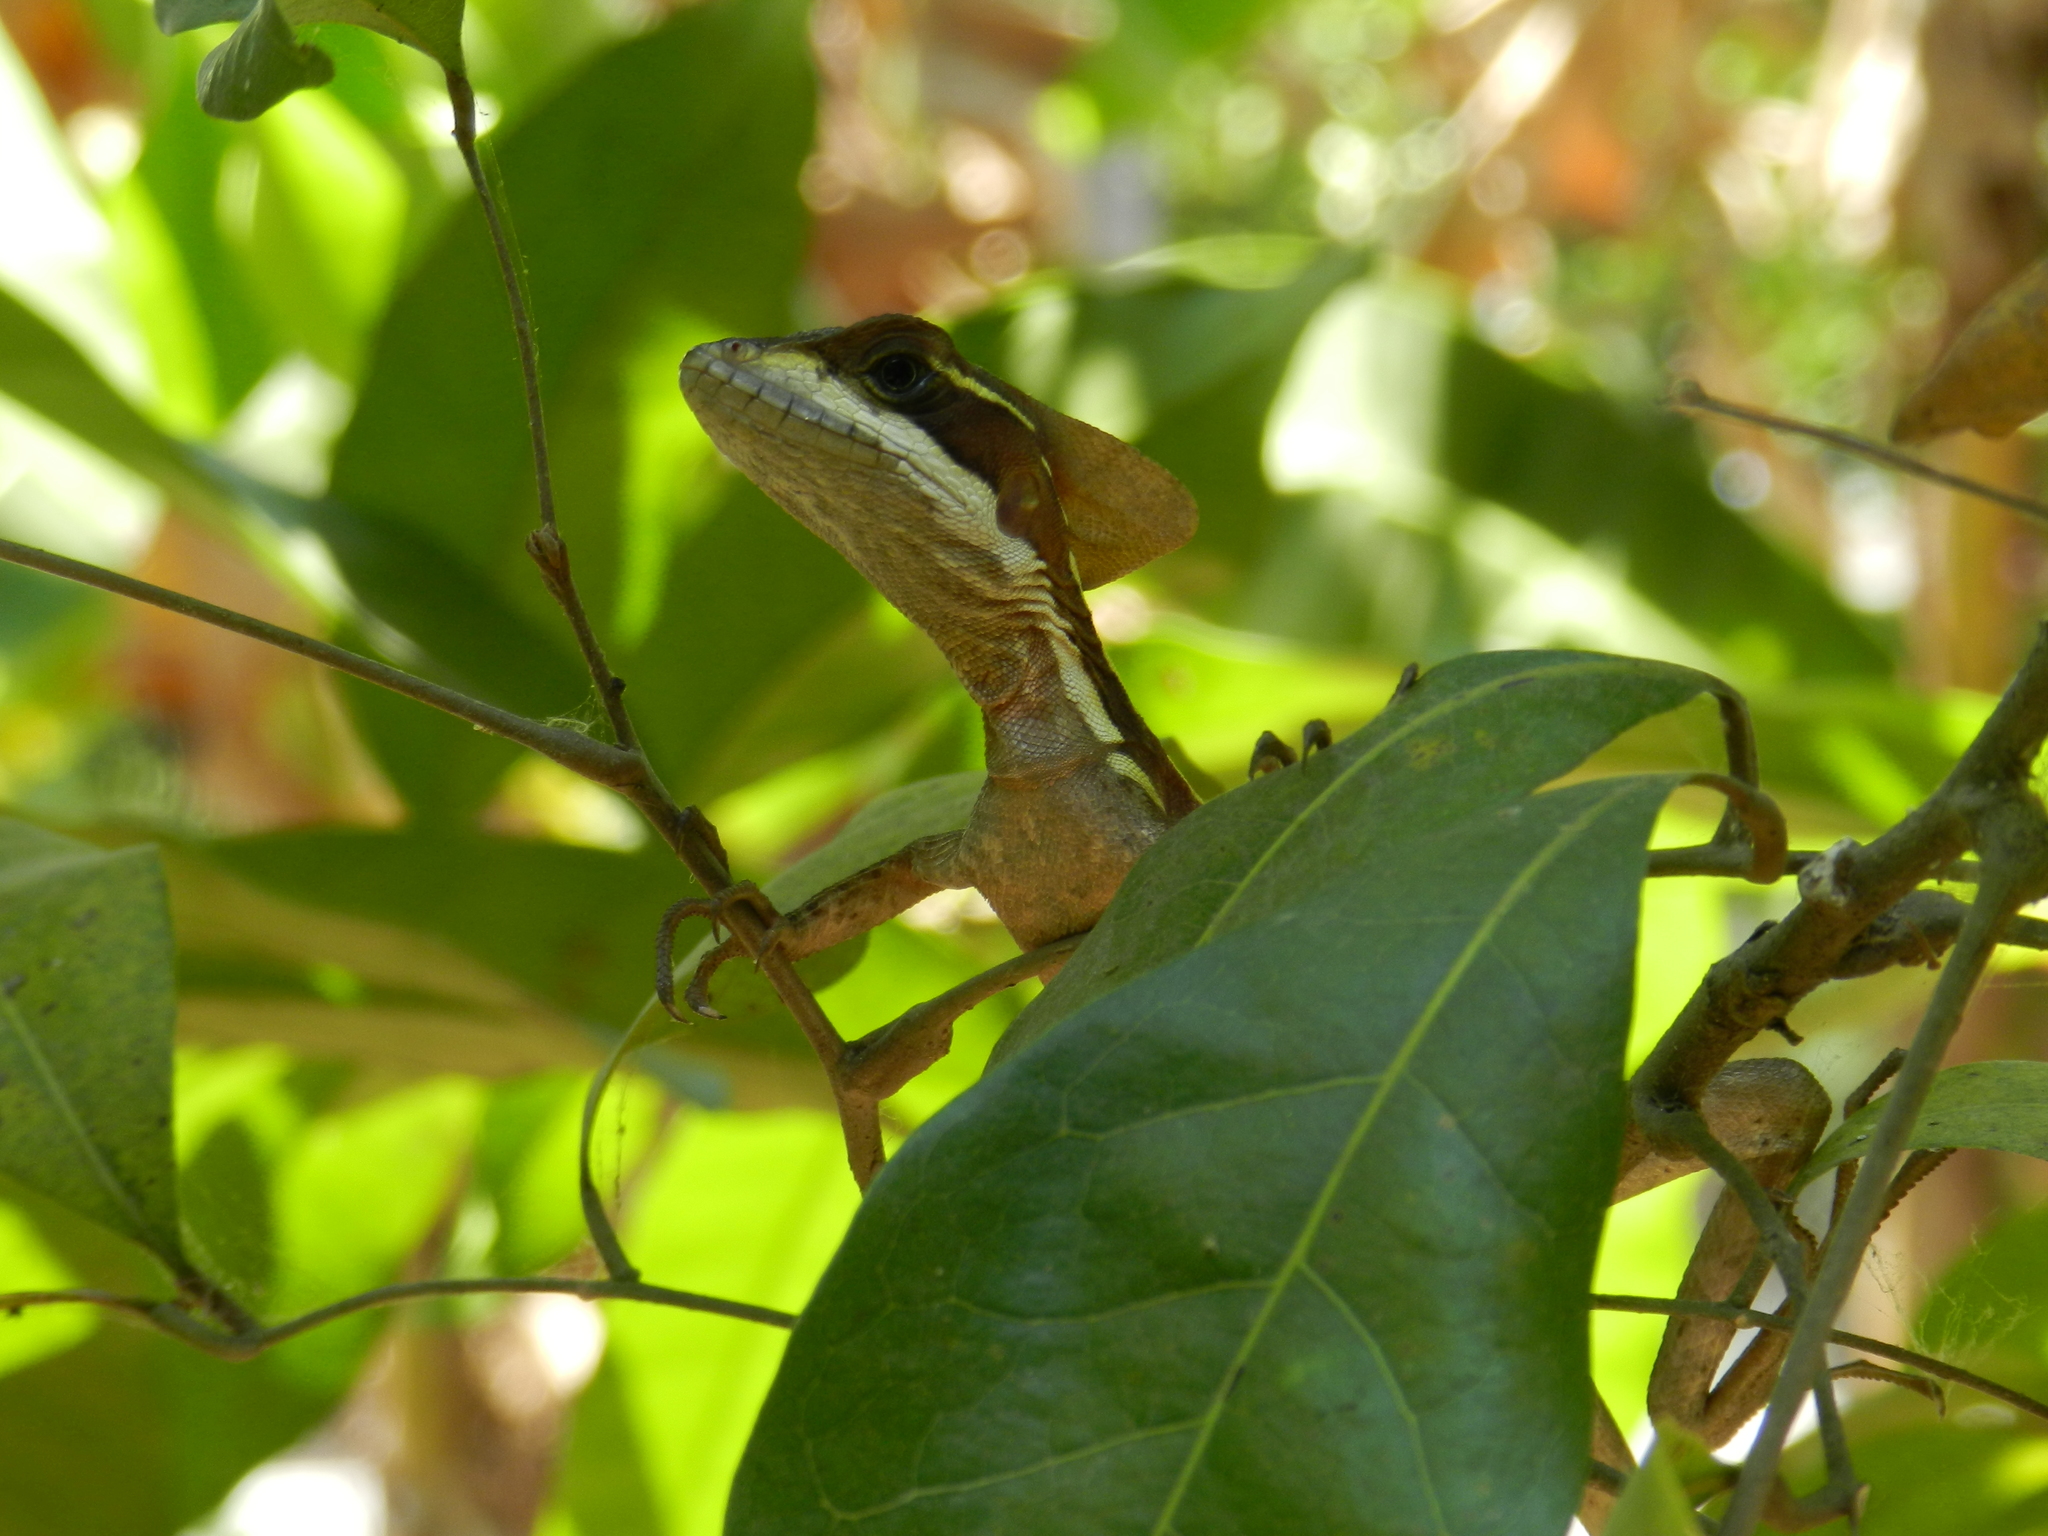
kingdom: Animalia
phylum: Chordata
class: Squamata
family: Corytophanidae
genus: Basiliscus
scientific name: Basiliscus vittatus
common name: Brown basilisk
